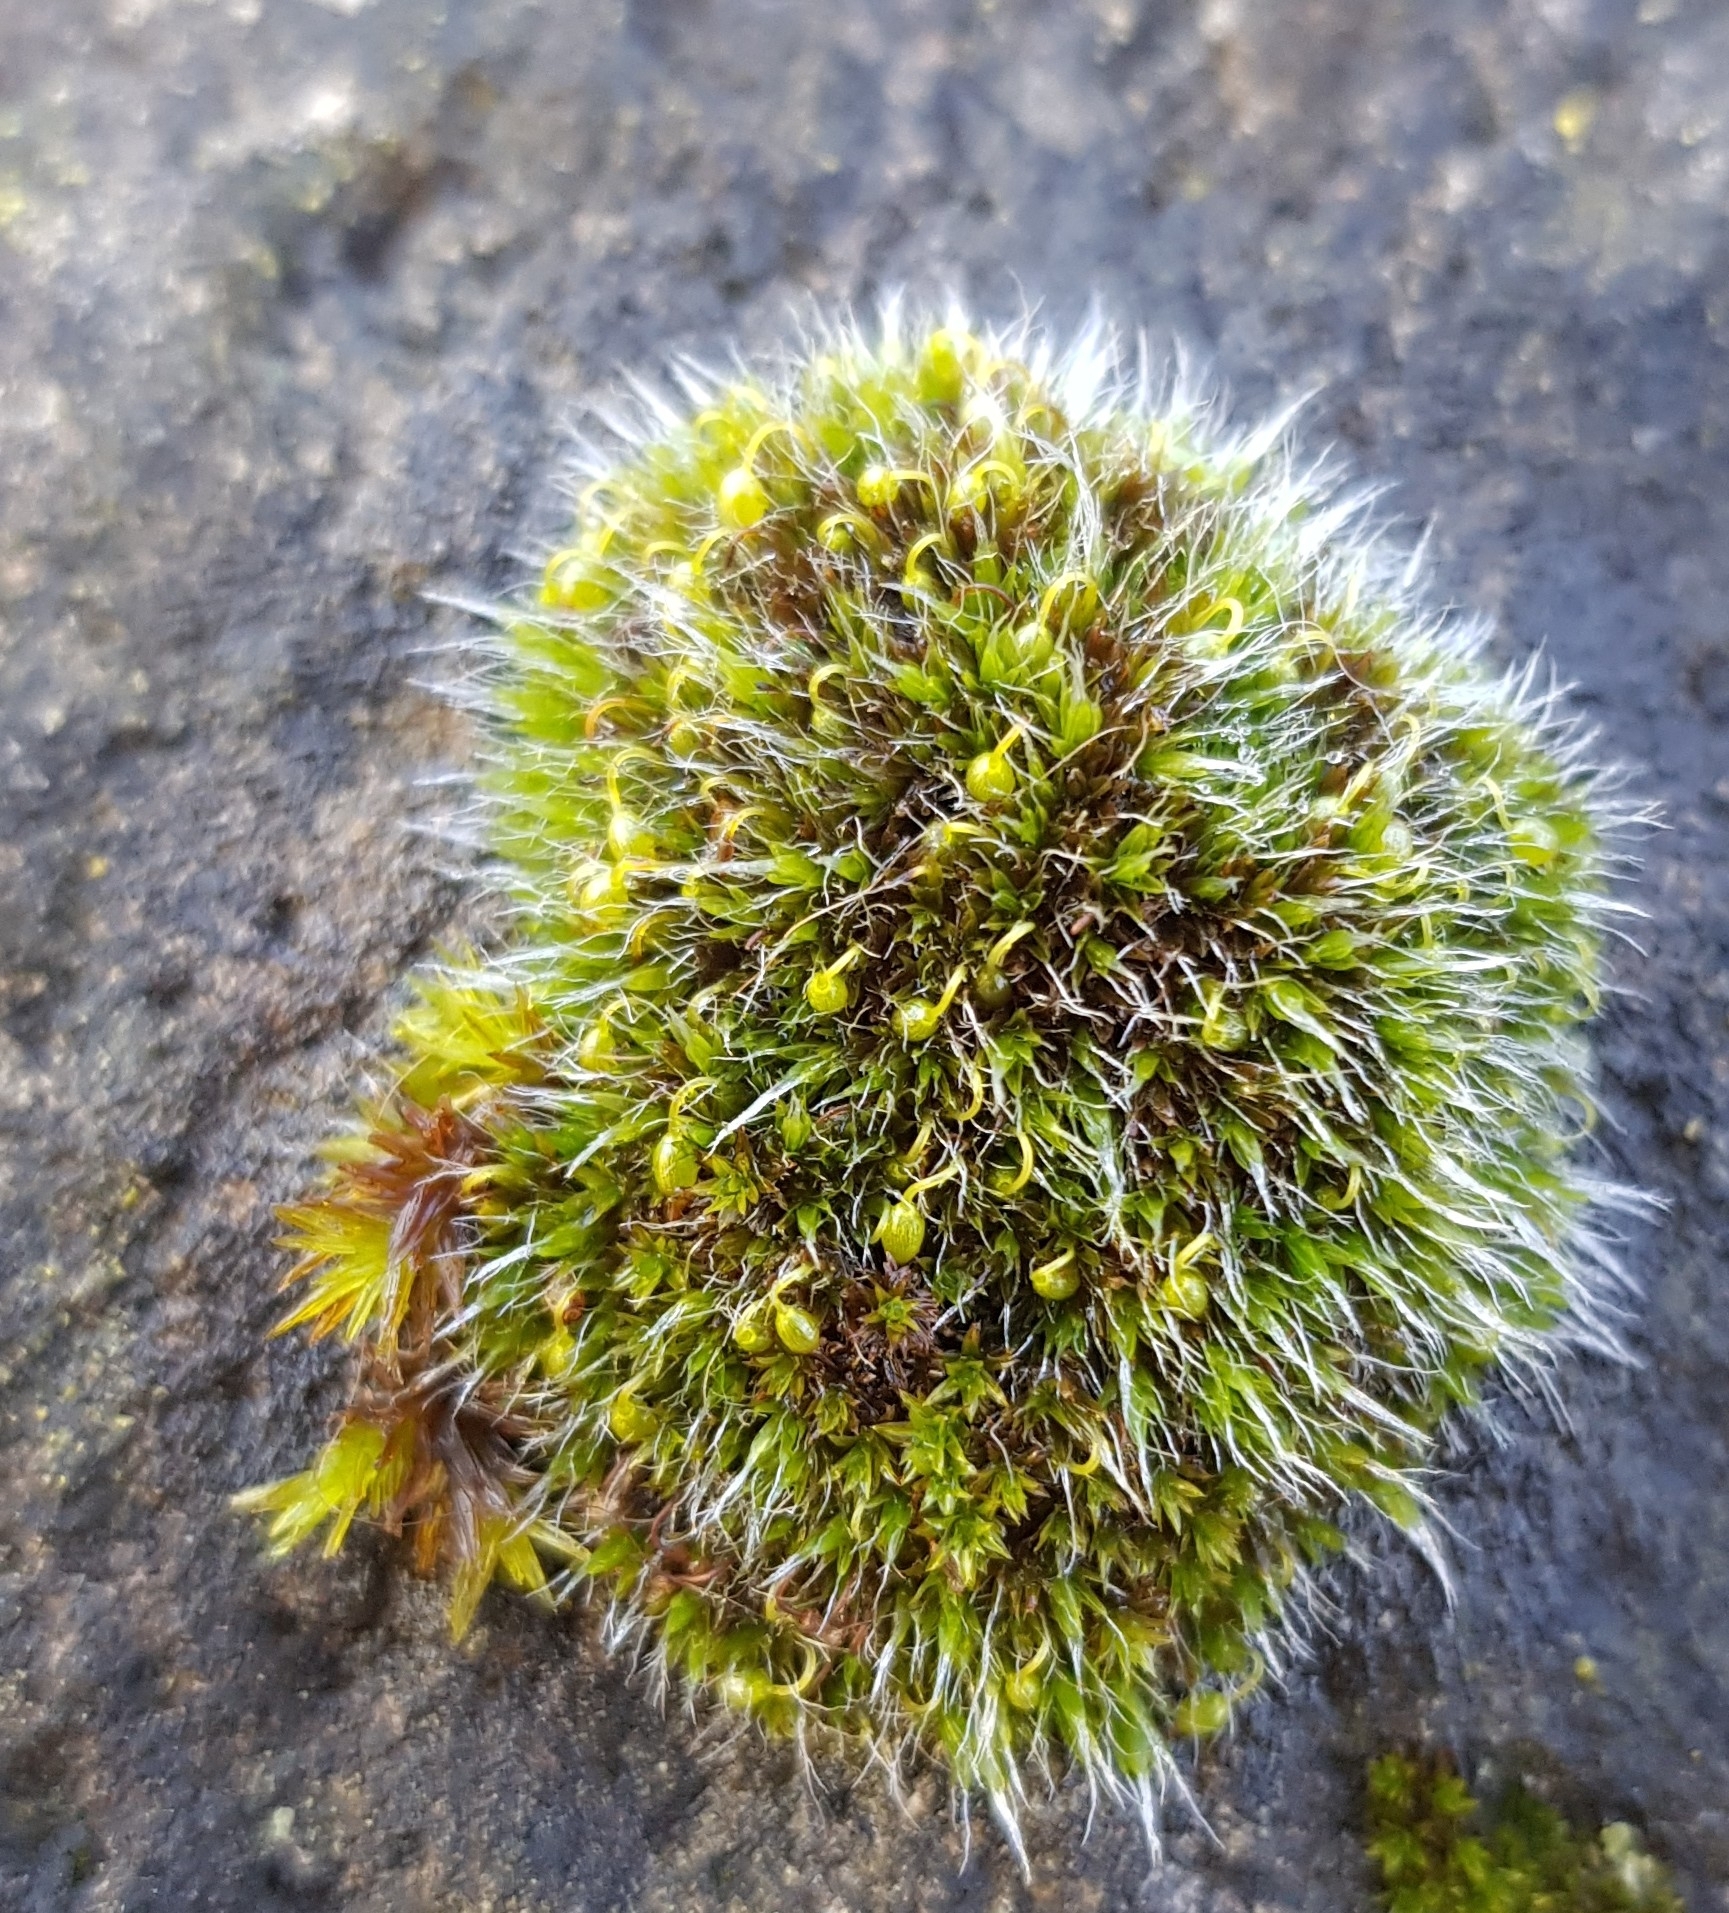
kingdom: Plantae
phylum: Bryophyta
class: Bryopsida
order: Grimmiales
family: Grimmiaceae
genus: Grimmia
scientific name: Grimmia pulvinata
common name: Grey-cushioned grimmia
